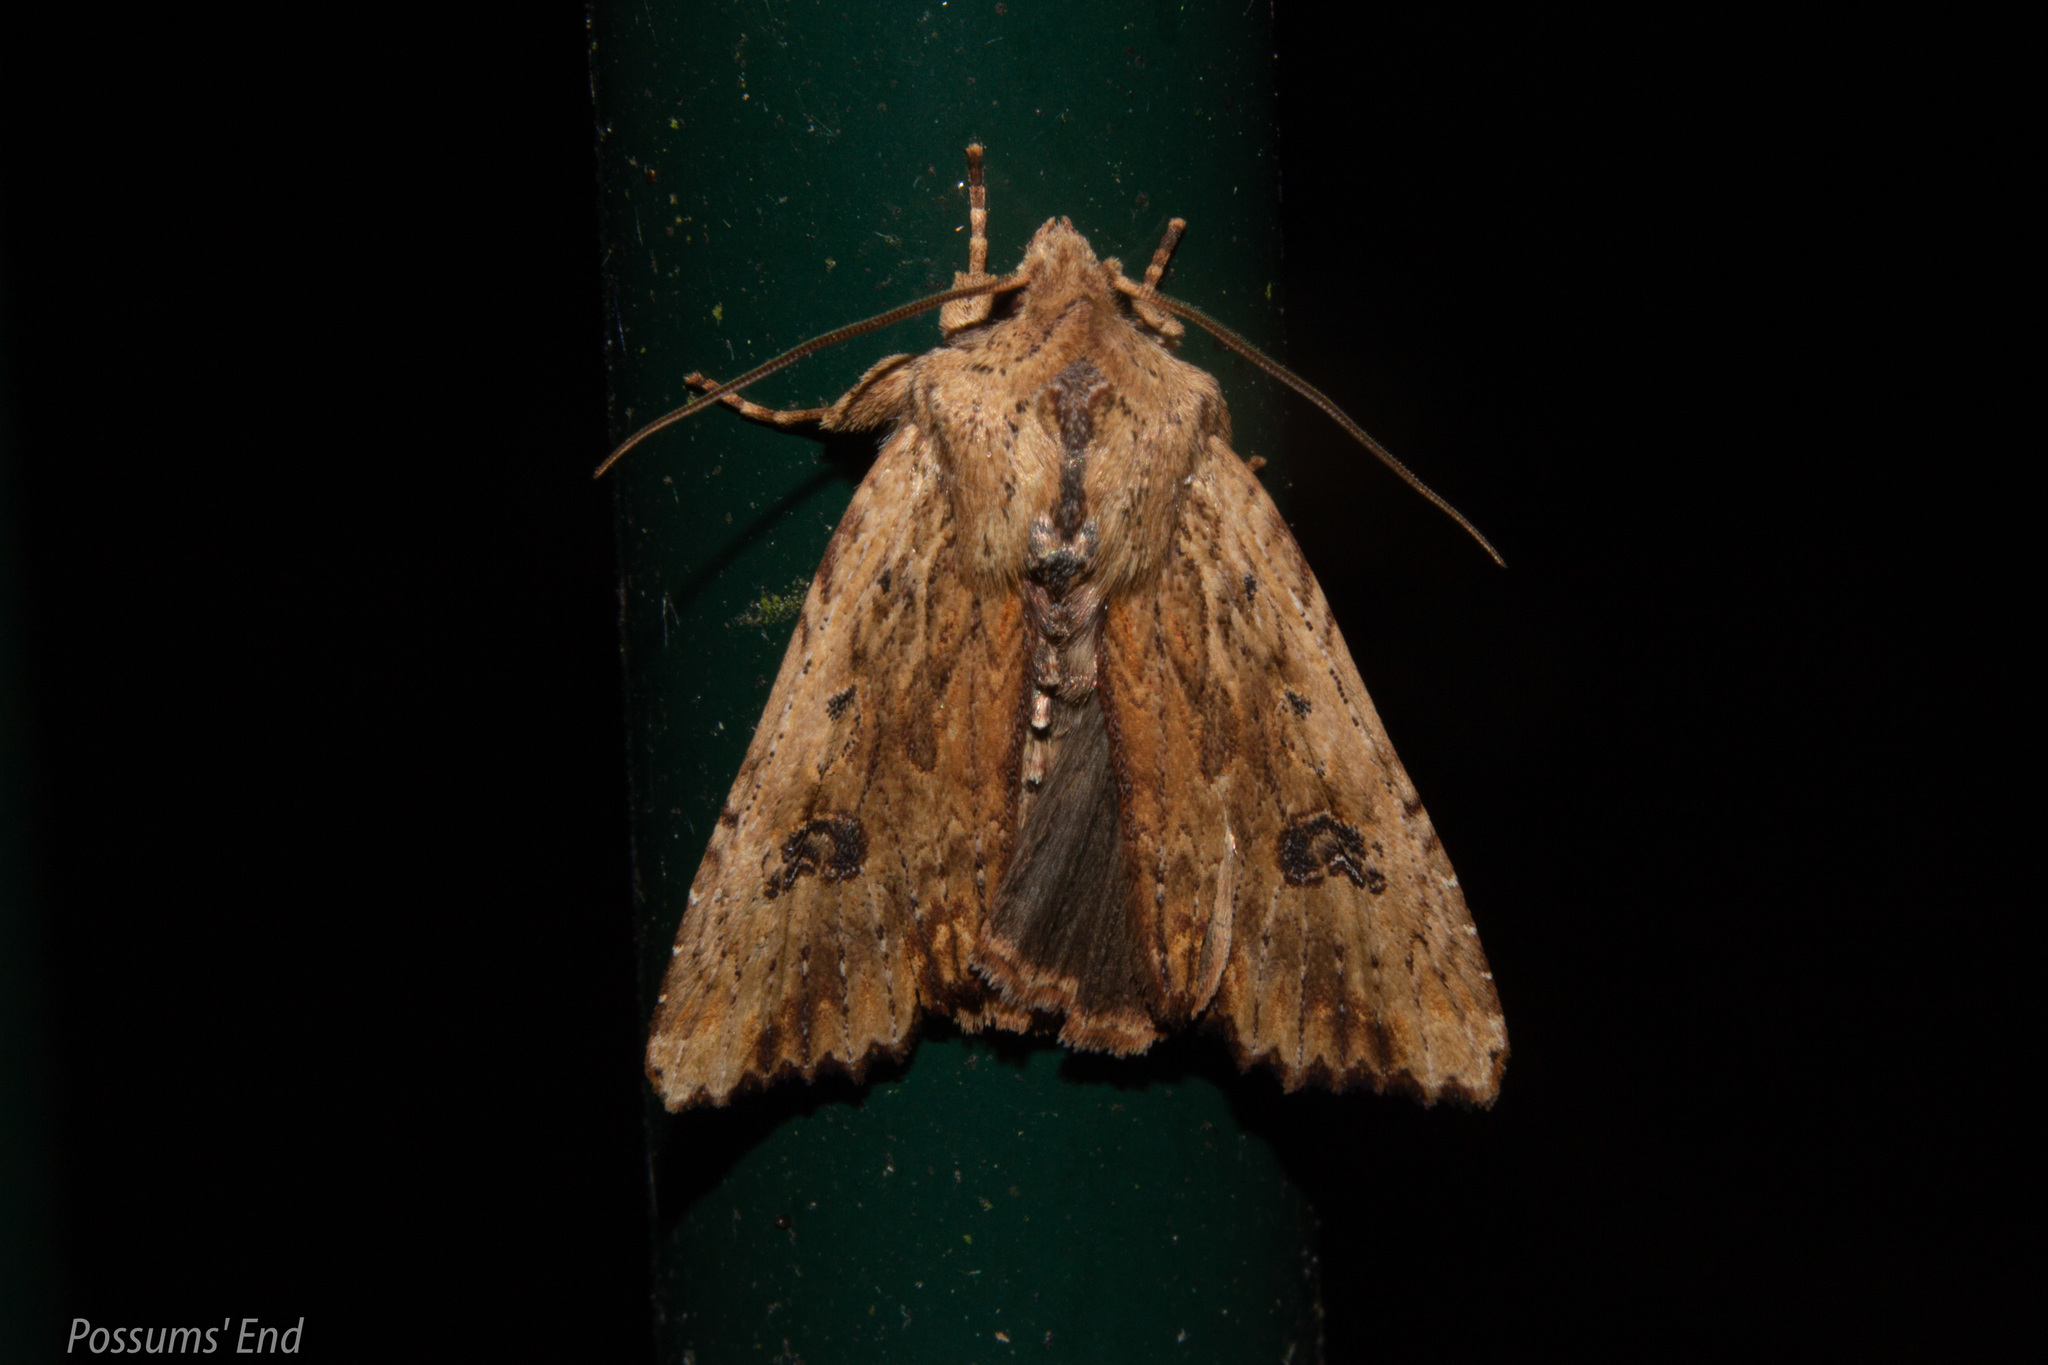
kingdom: Animalia
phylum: Arthropoda
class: Insecta
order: Lepidoptera
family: Noctuidae
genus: Ichneutica
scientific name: Ichneutica
